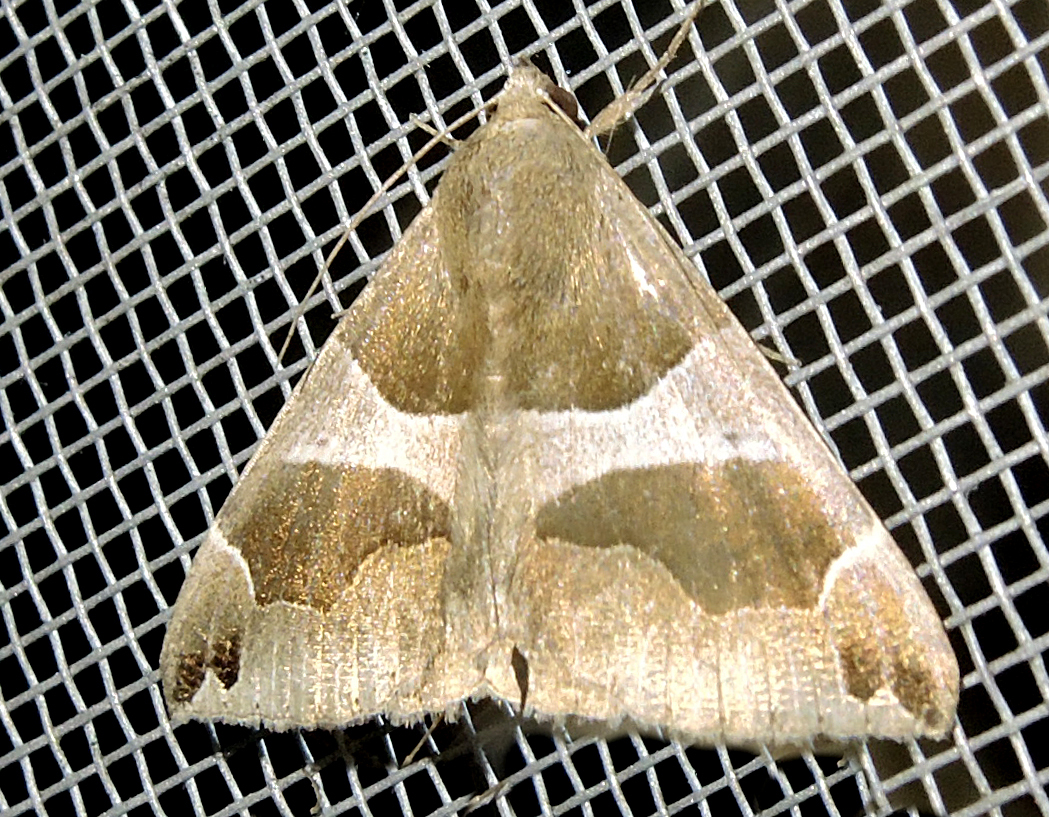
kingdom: Animalia
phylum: Arthropoda
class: Insecta
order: Lepidoptera
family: Erebidae
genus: Dysgonia
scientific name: Dysgonia algira
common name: Passenger
